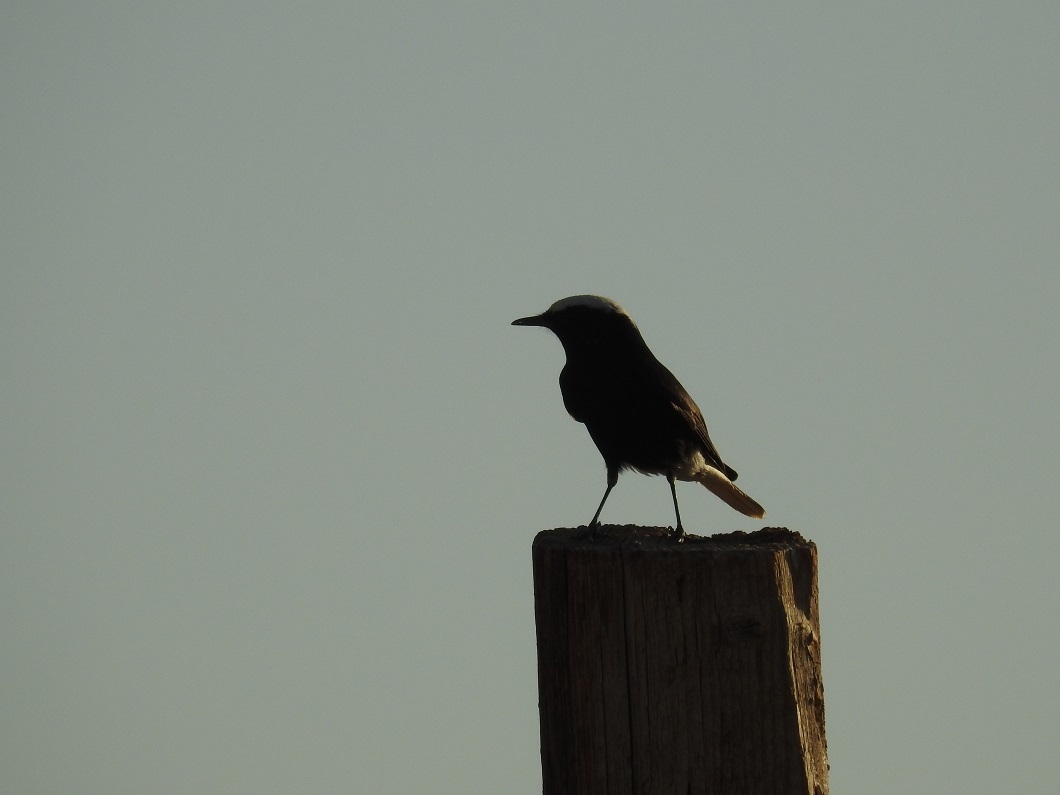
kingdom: Animalia
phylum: Chordata
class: Aves
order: Passeriformes
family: Muscicapidae
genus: Oenanthe
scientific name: Oenanthe leucopyga
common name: White-crowned wheatear
